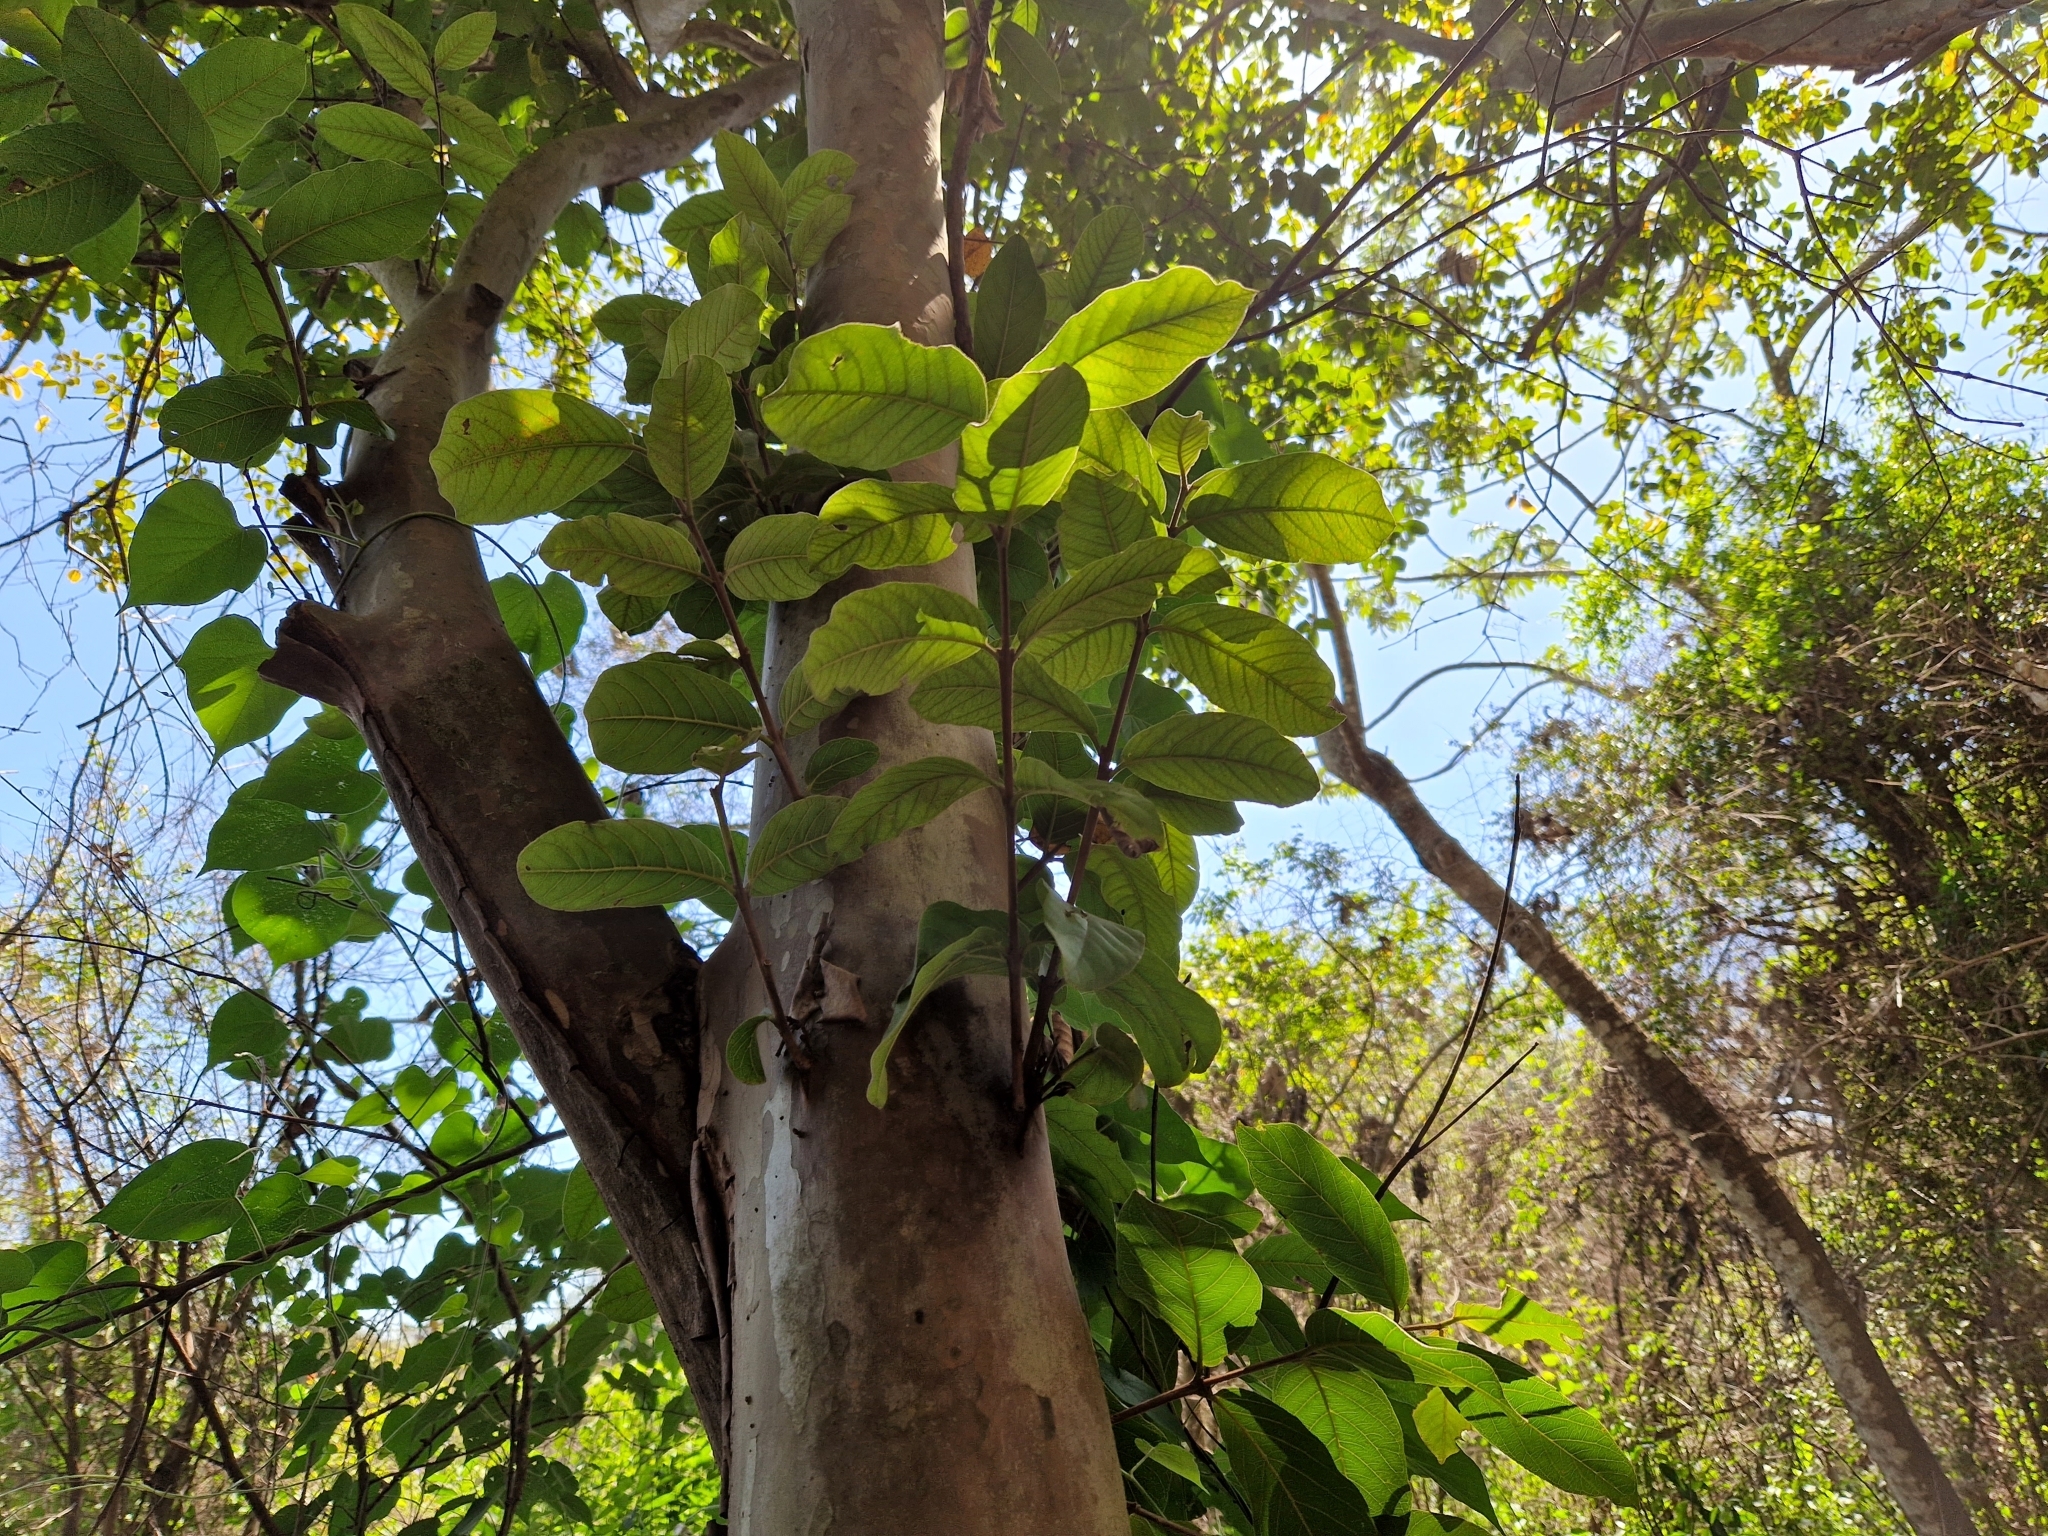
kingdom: Plantae
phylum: Tracheophyta
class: Magnoliopsida
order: Myrtales
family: Myrtaceae
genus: Psidium
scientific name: Psidium guajava
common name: Guava
